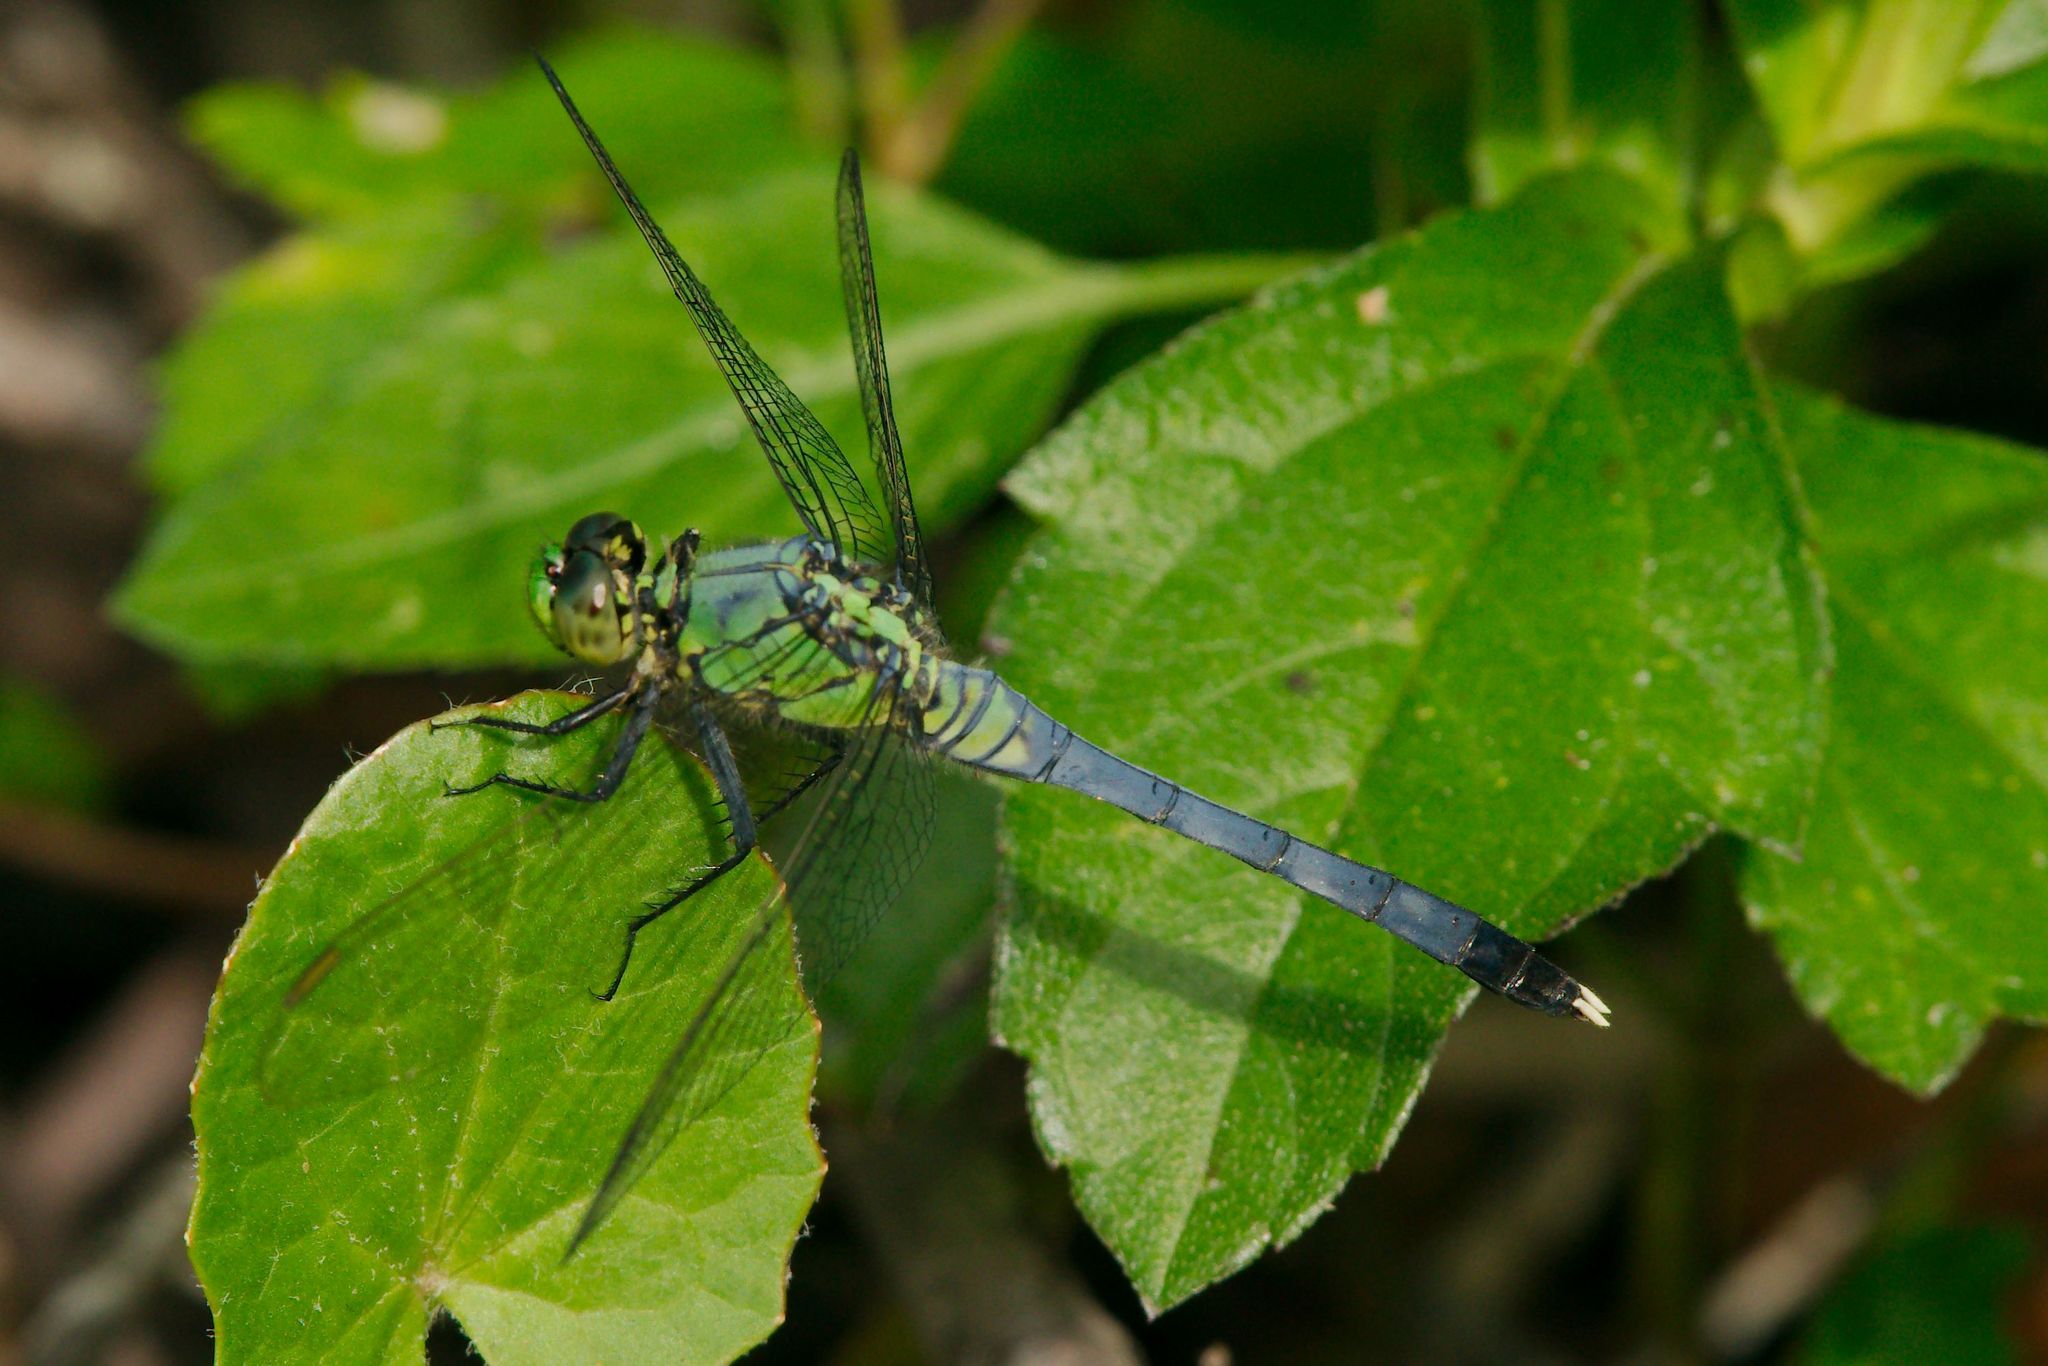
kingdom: Animalia
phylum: Arthropoda
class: Insecta
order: Odonata
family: Libellulidae
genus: Erythemis
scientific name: Erythemis simplicicollis
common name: Eastern pondhawk
